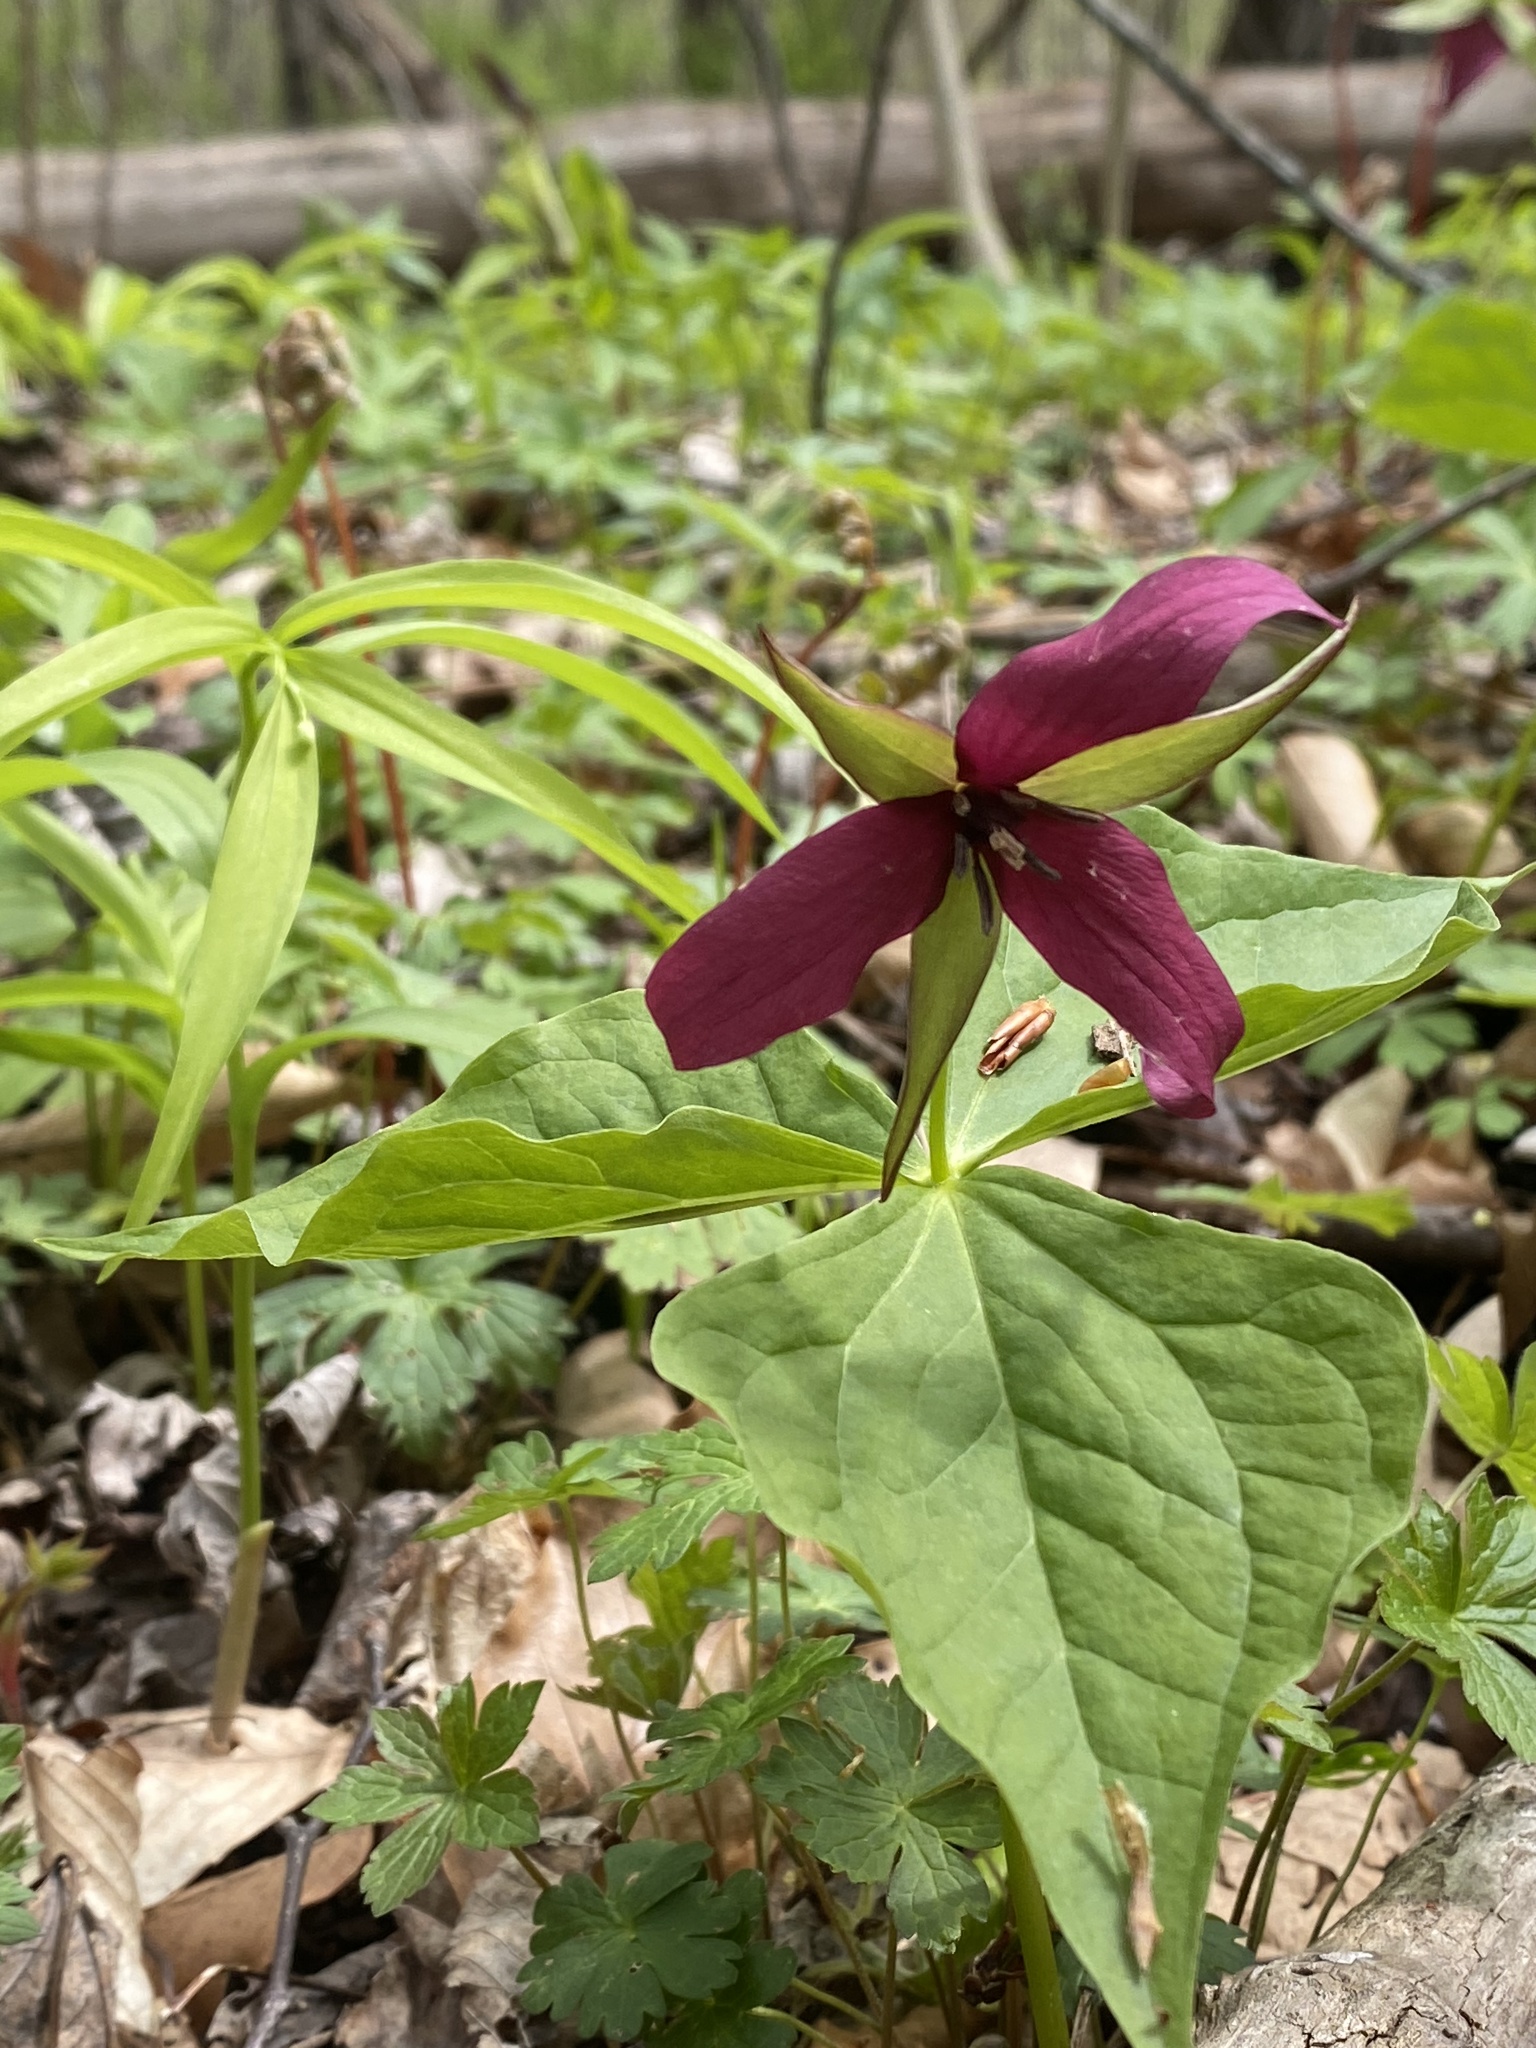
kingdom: Plantae
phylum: Tracheophyta
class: Liliopsida
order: Liliales
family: Melanthiaceae
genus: Trillium
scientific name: Trillium erectum
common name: Purple trillium
